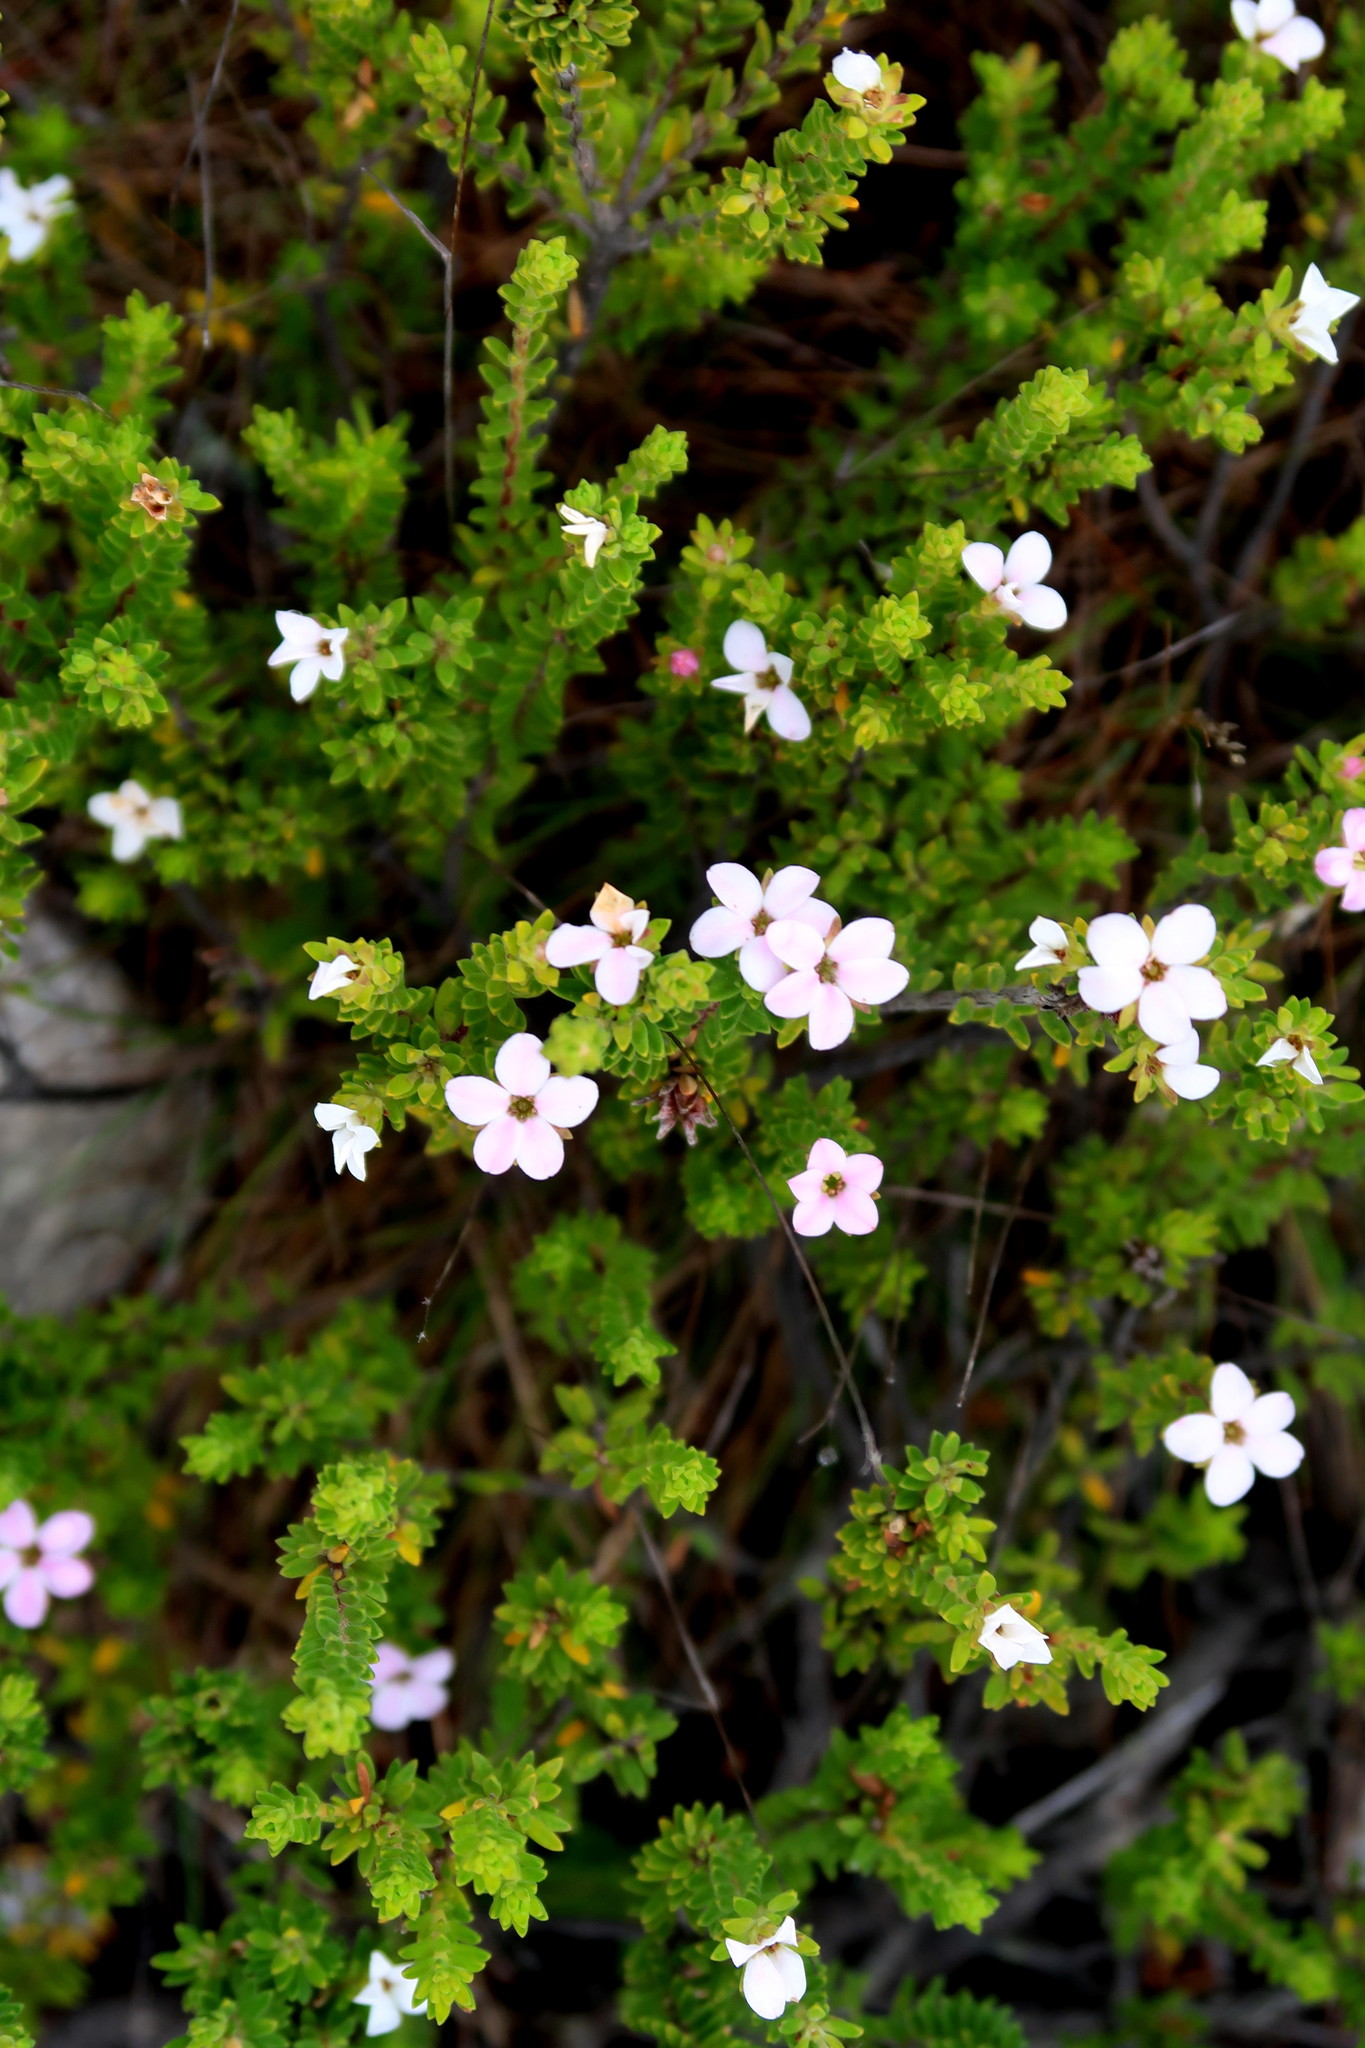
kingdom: Plantae
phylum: Tracheophyta
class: Magnoliopsida
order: Sapindales
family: Rutaceae
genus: Acmadenia
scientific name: Acmadenia rupicola
